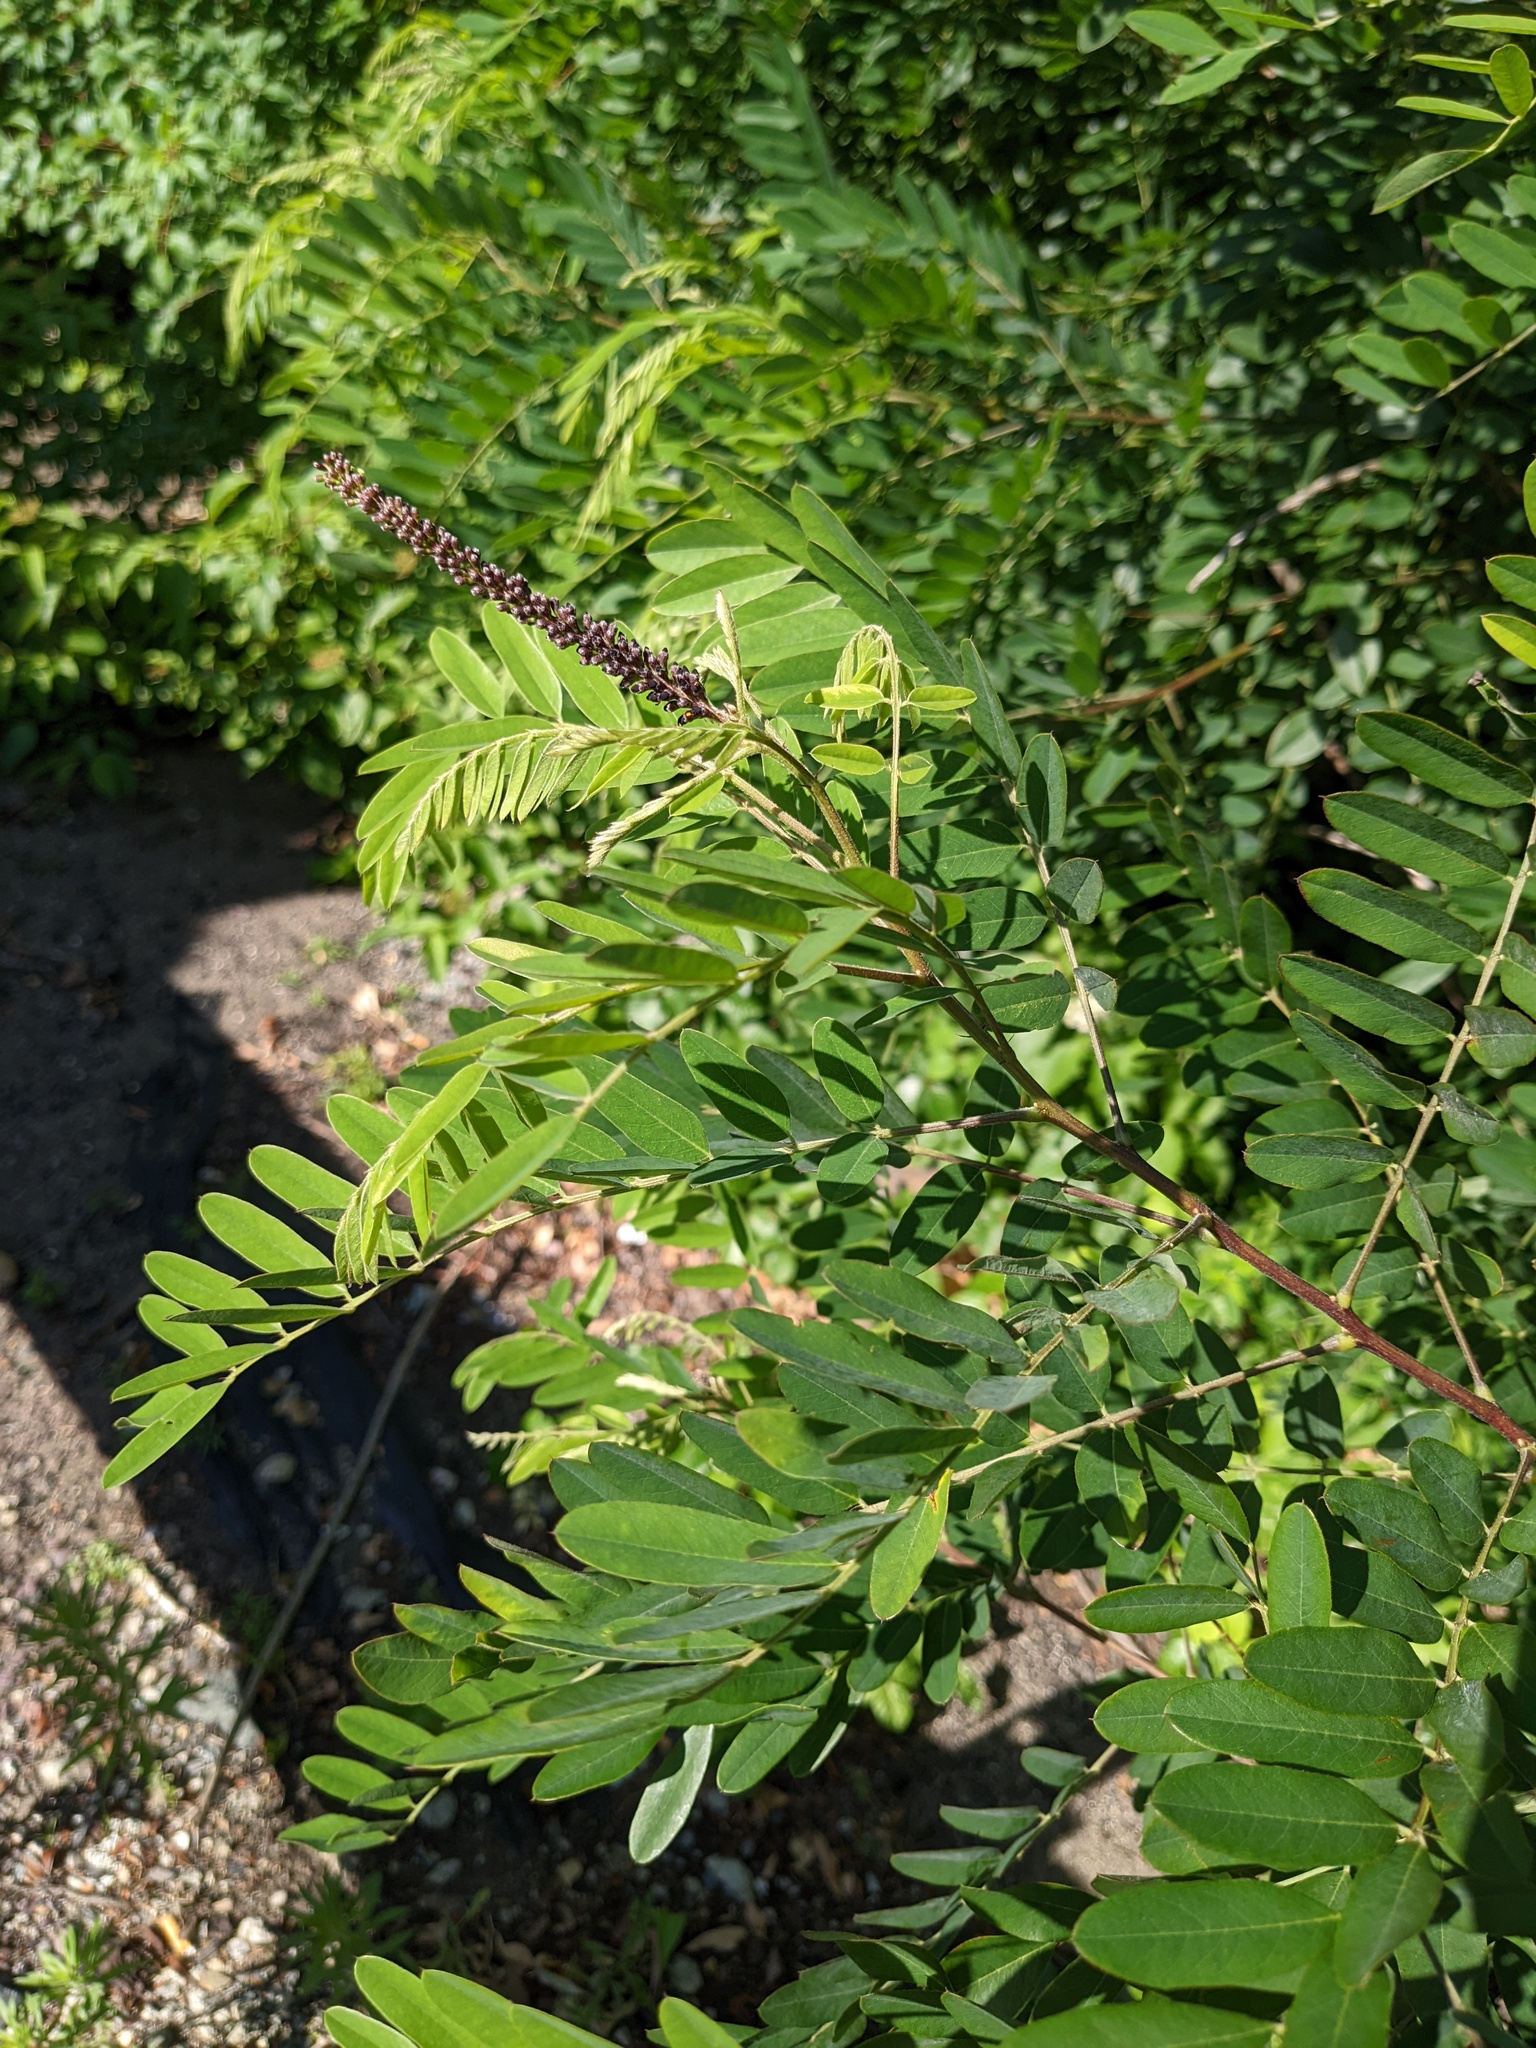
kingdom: Plantae
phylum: Tracheophyta
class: Magnoliopsida
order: Fabales
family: Fabaceae
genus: Amorpha
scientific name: Amorpha fruticosa
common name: False indigo
